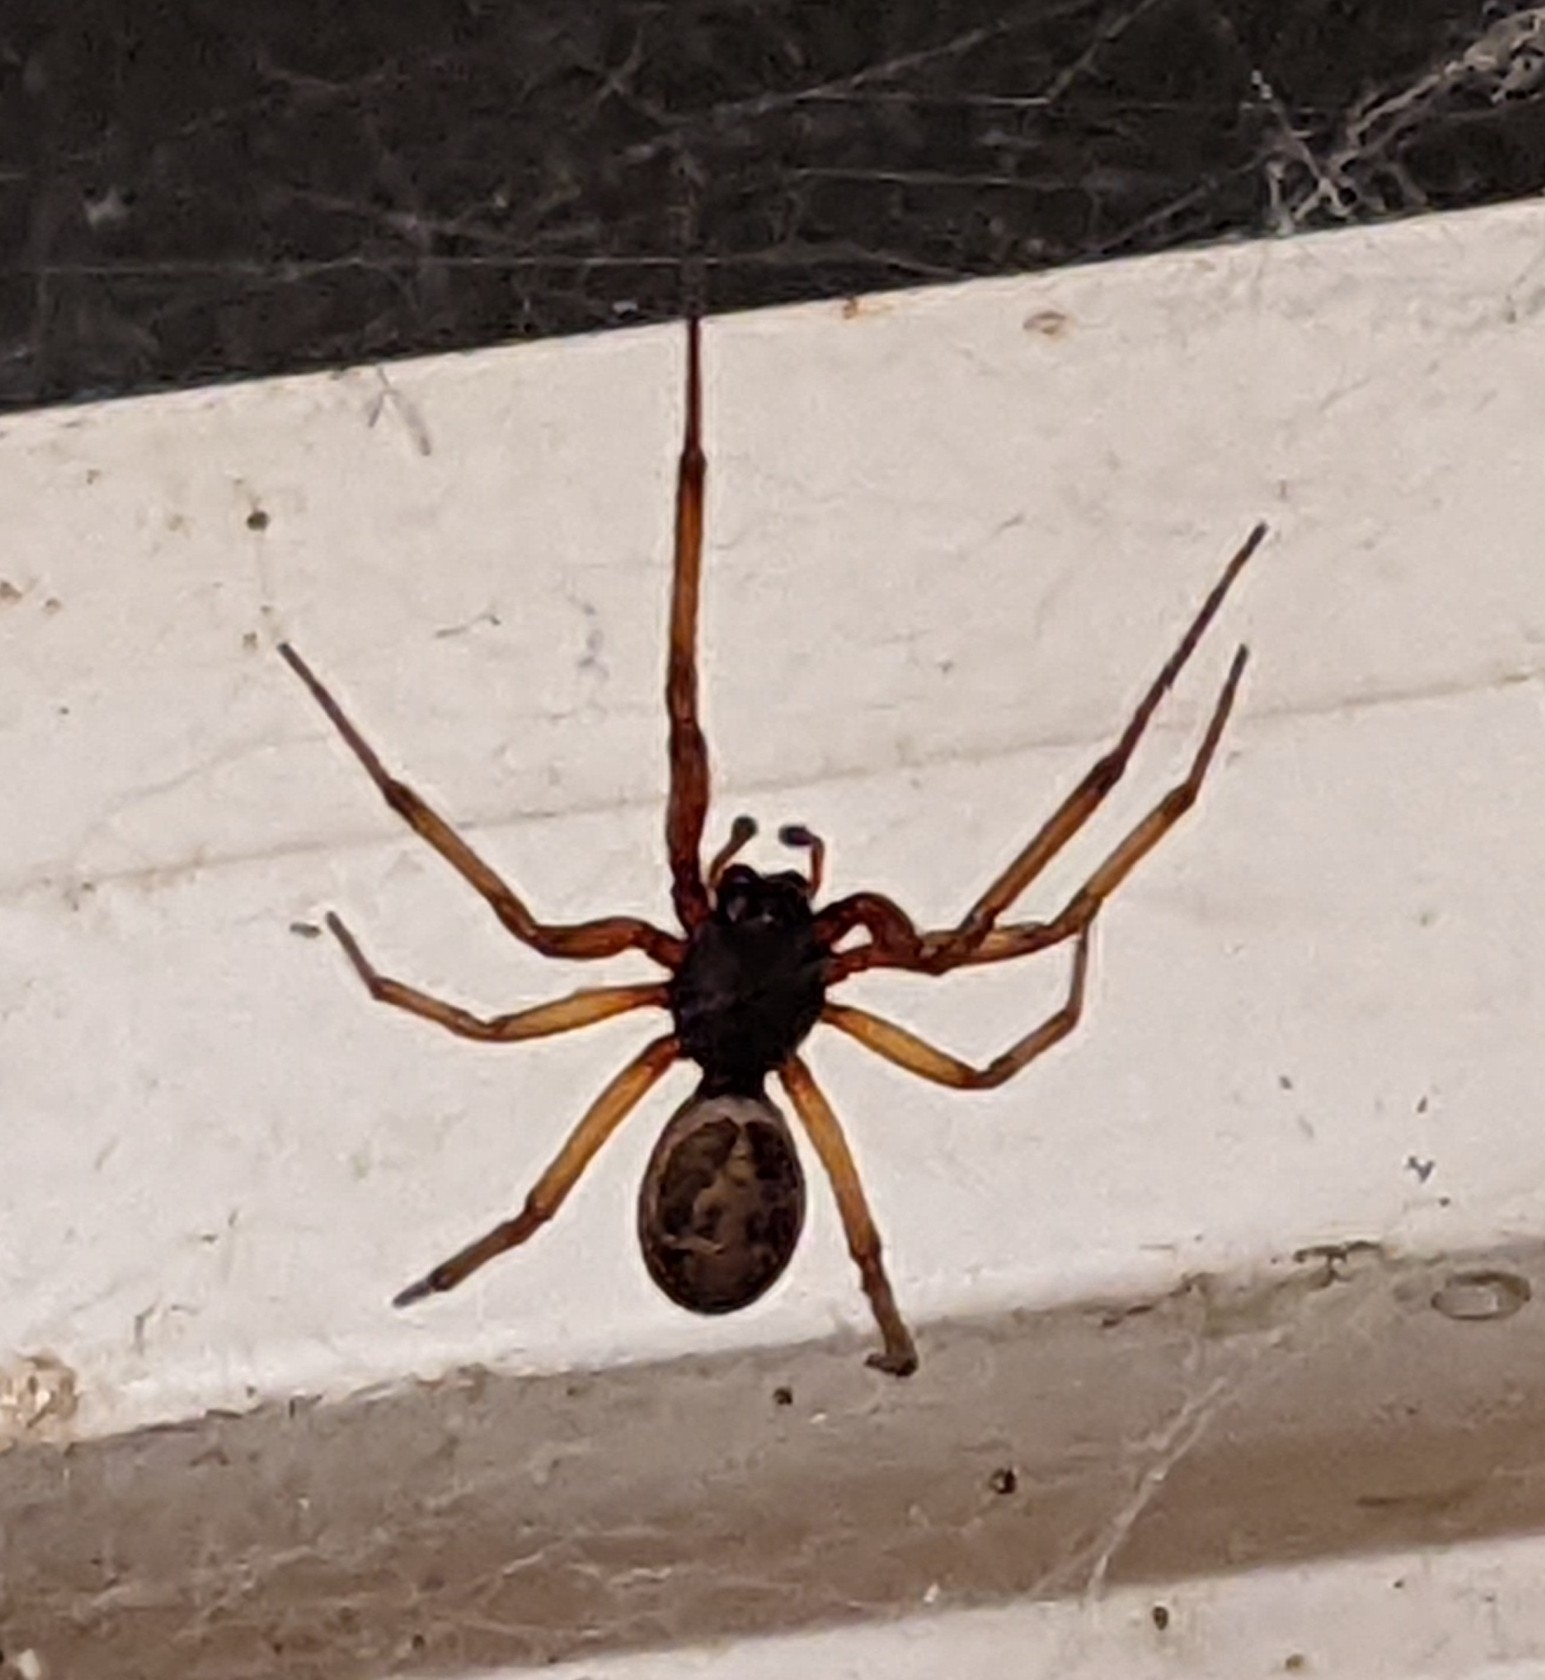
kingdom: Animalia
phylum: Arthropoda
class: Arachnida
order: Araneae
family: Theridiidae
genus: Steatoda
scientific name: Steatoda nobilis
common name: Cobweb weaver
